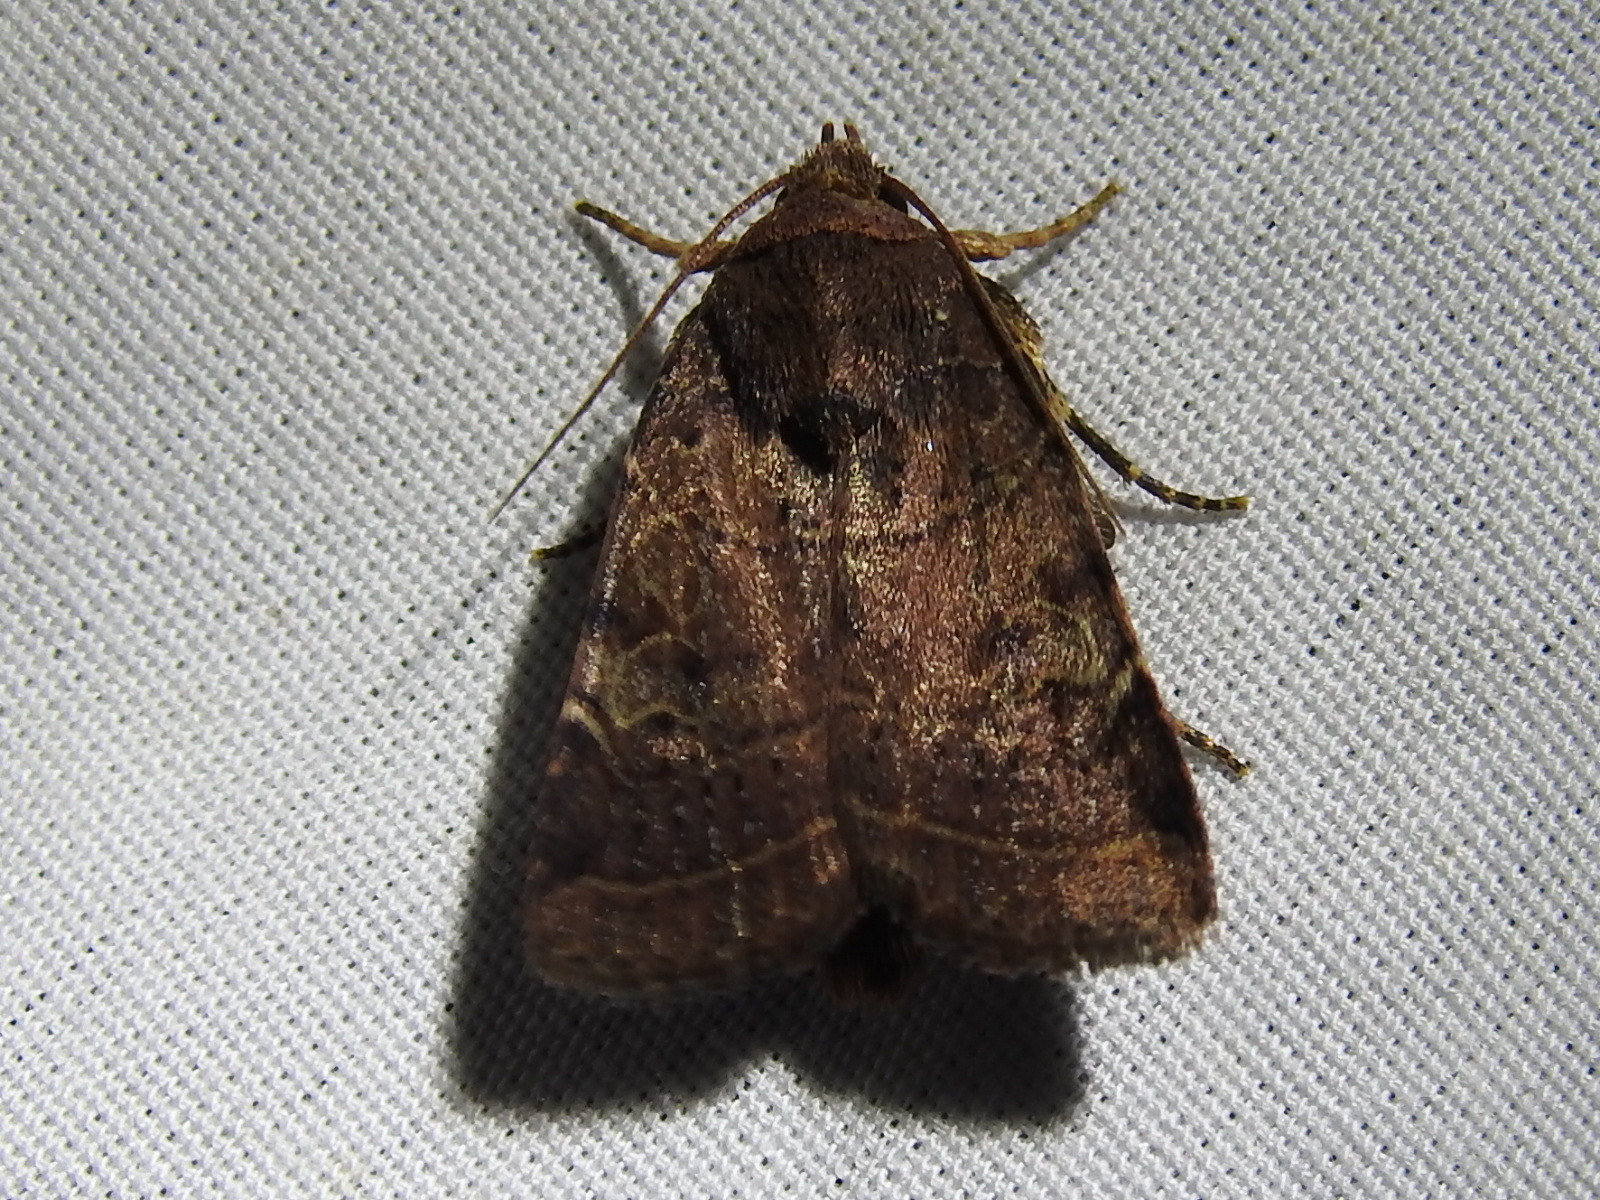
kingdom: Animalia
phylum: Arthropoda
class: Insecta
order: Lepidoptera
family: Noctuidae
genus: Orthodes
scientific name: Orthodes furtiva
